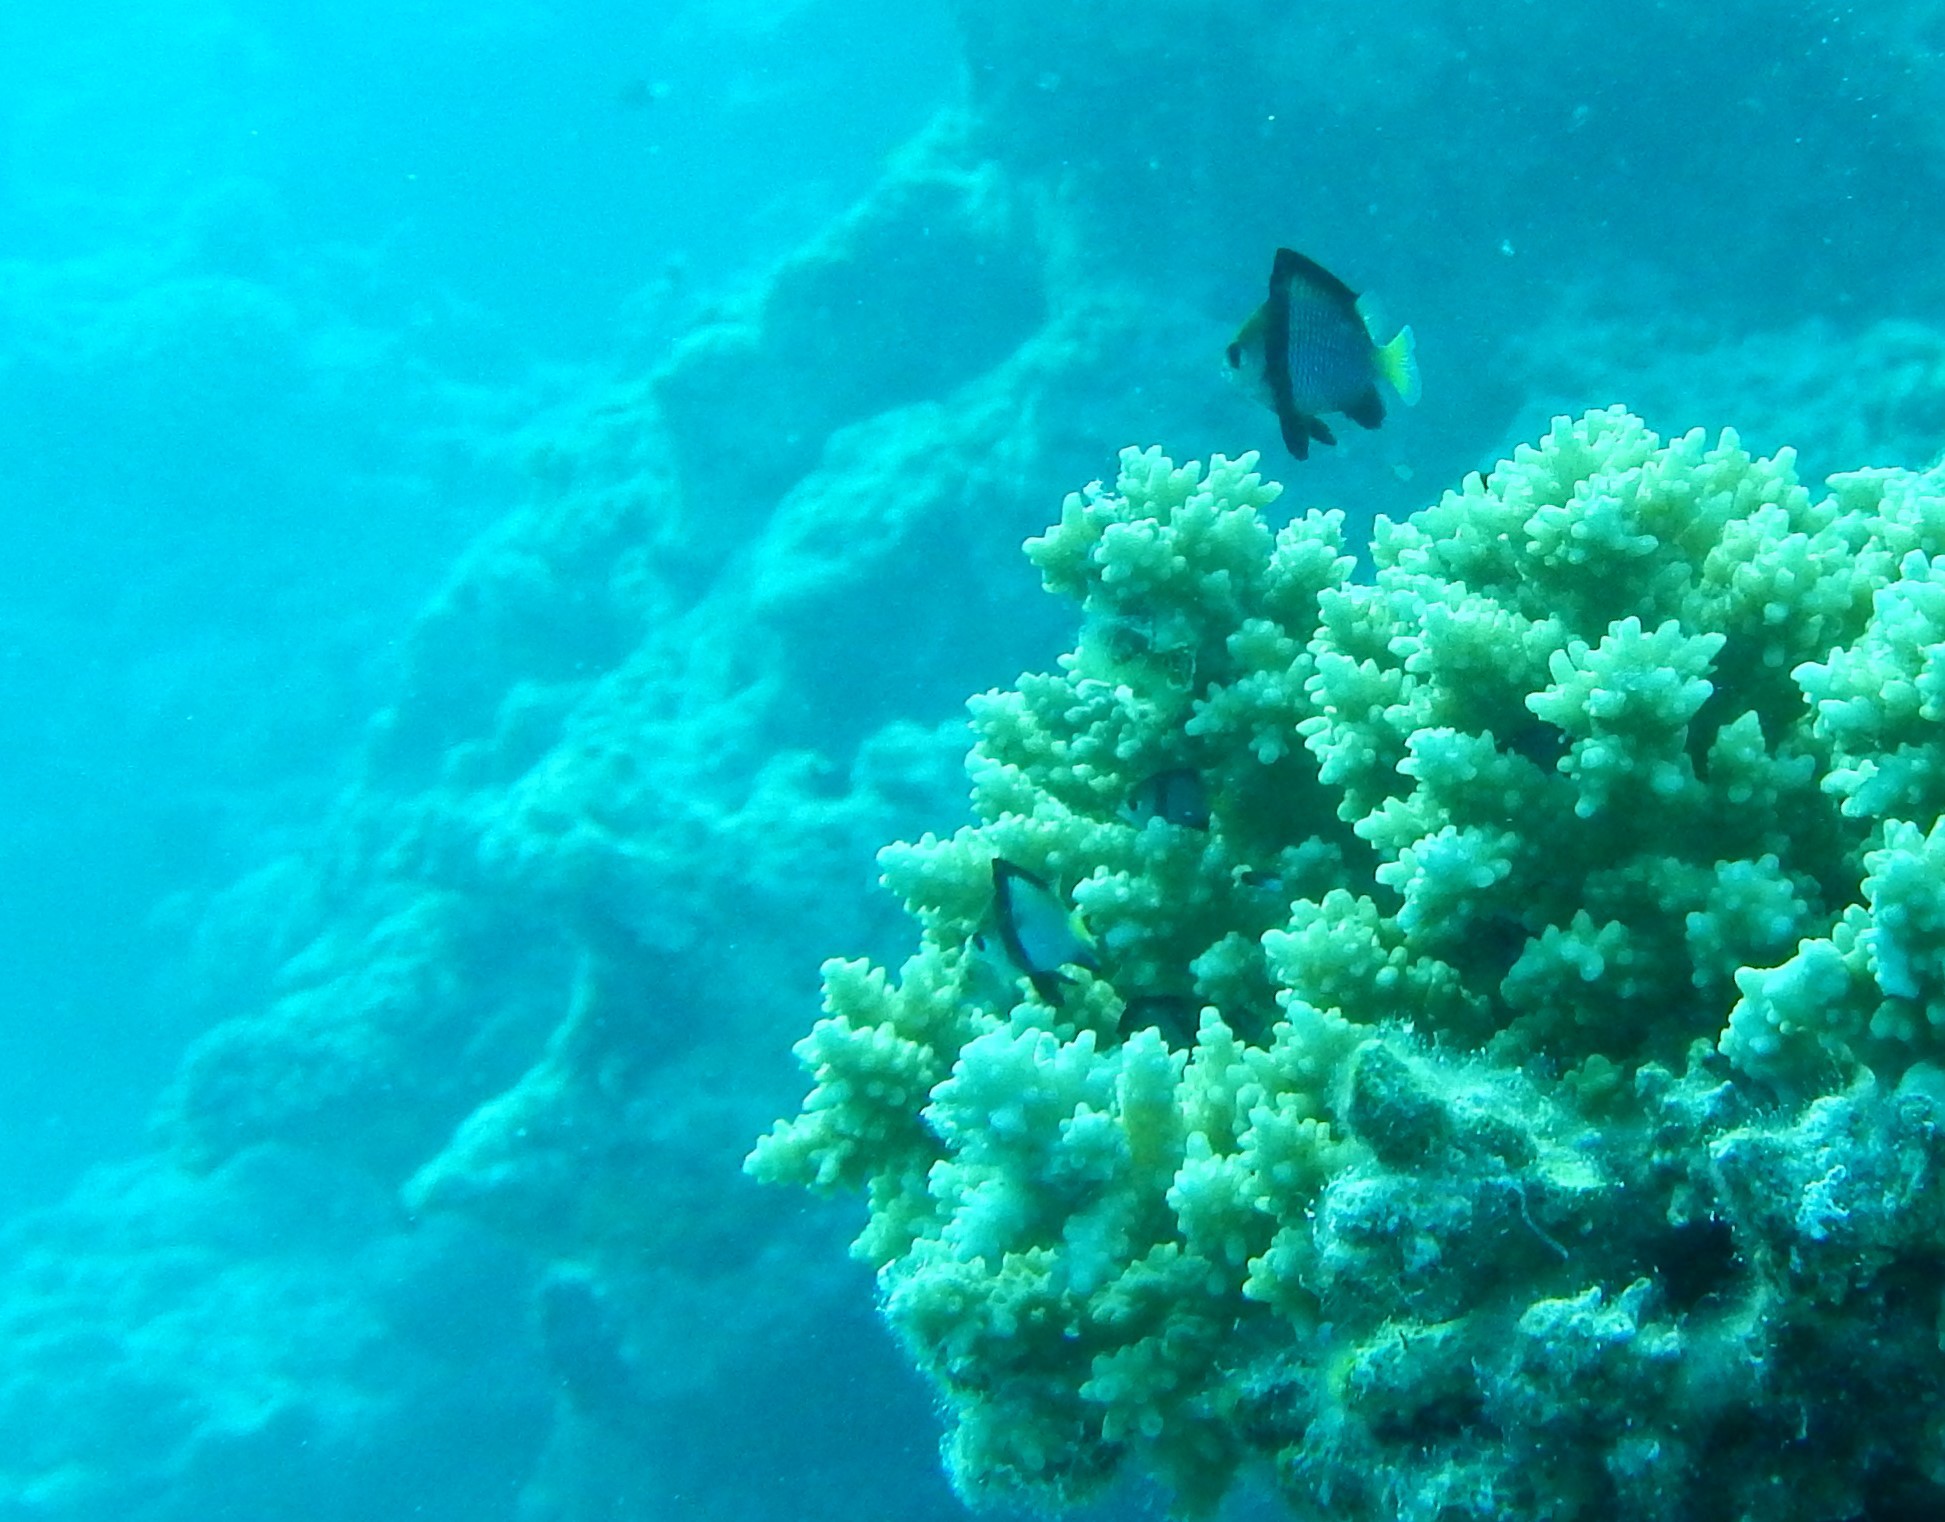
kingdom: Animalia
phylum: Chordata
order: Perciformes
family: Pomacentridae
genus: Dascyllus
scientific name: Dascyllus flavicaudus
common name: Yellow-tailed dascyllus
